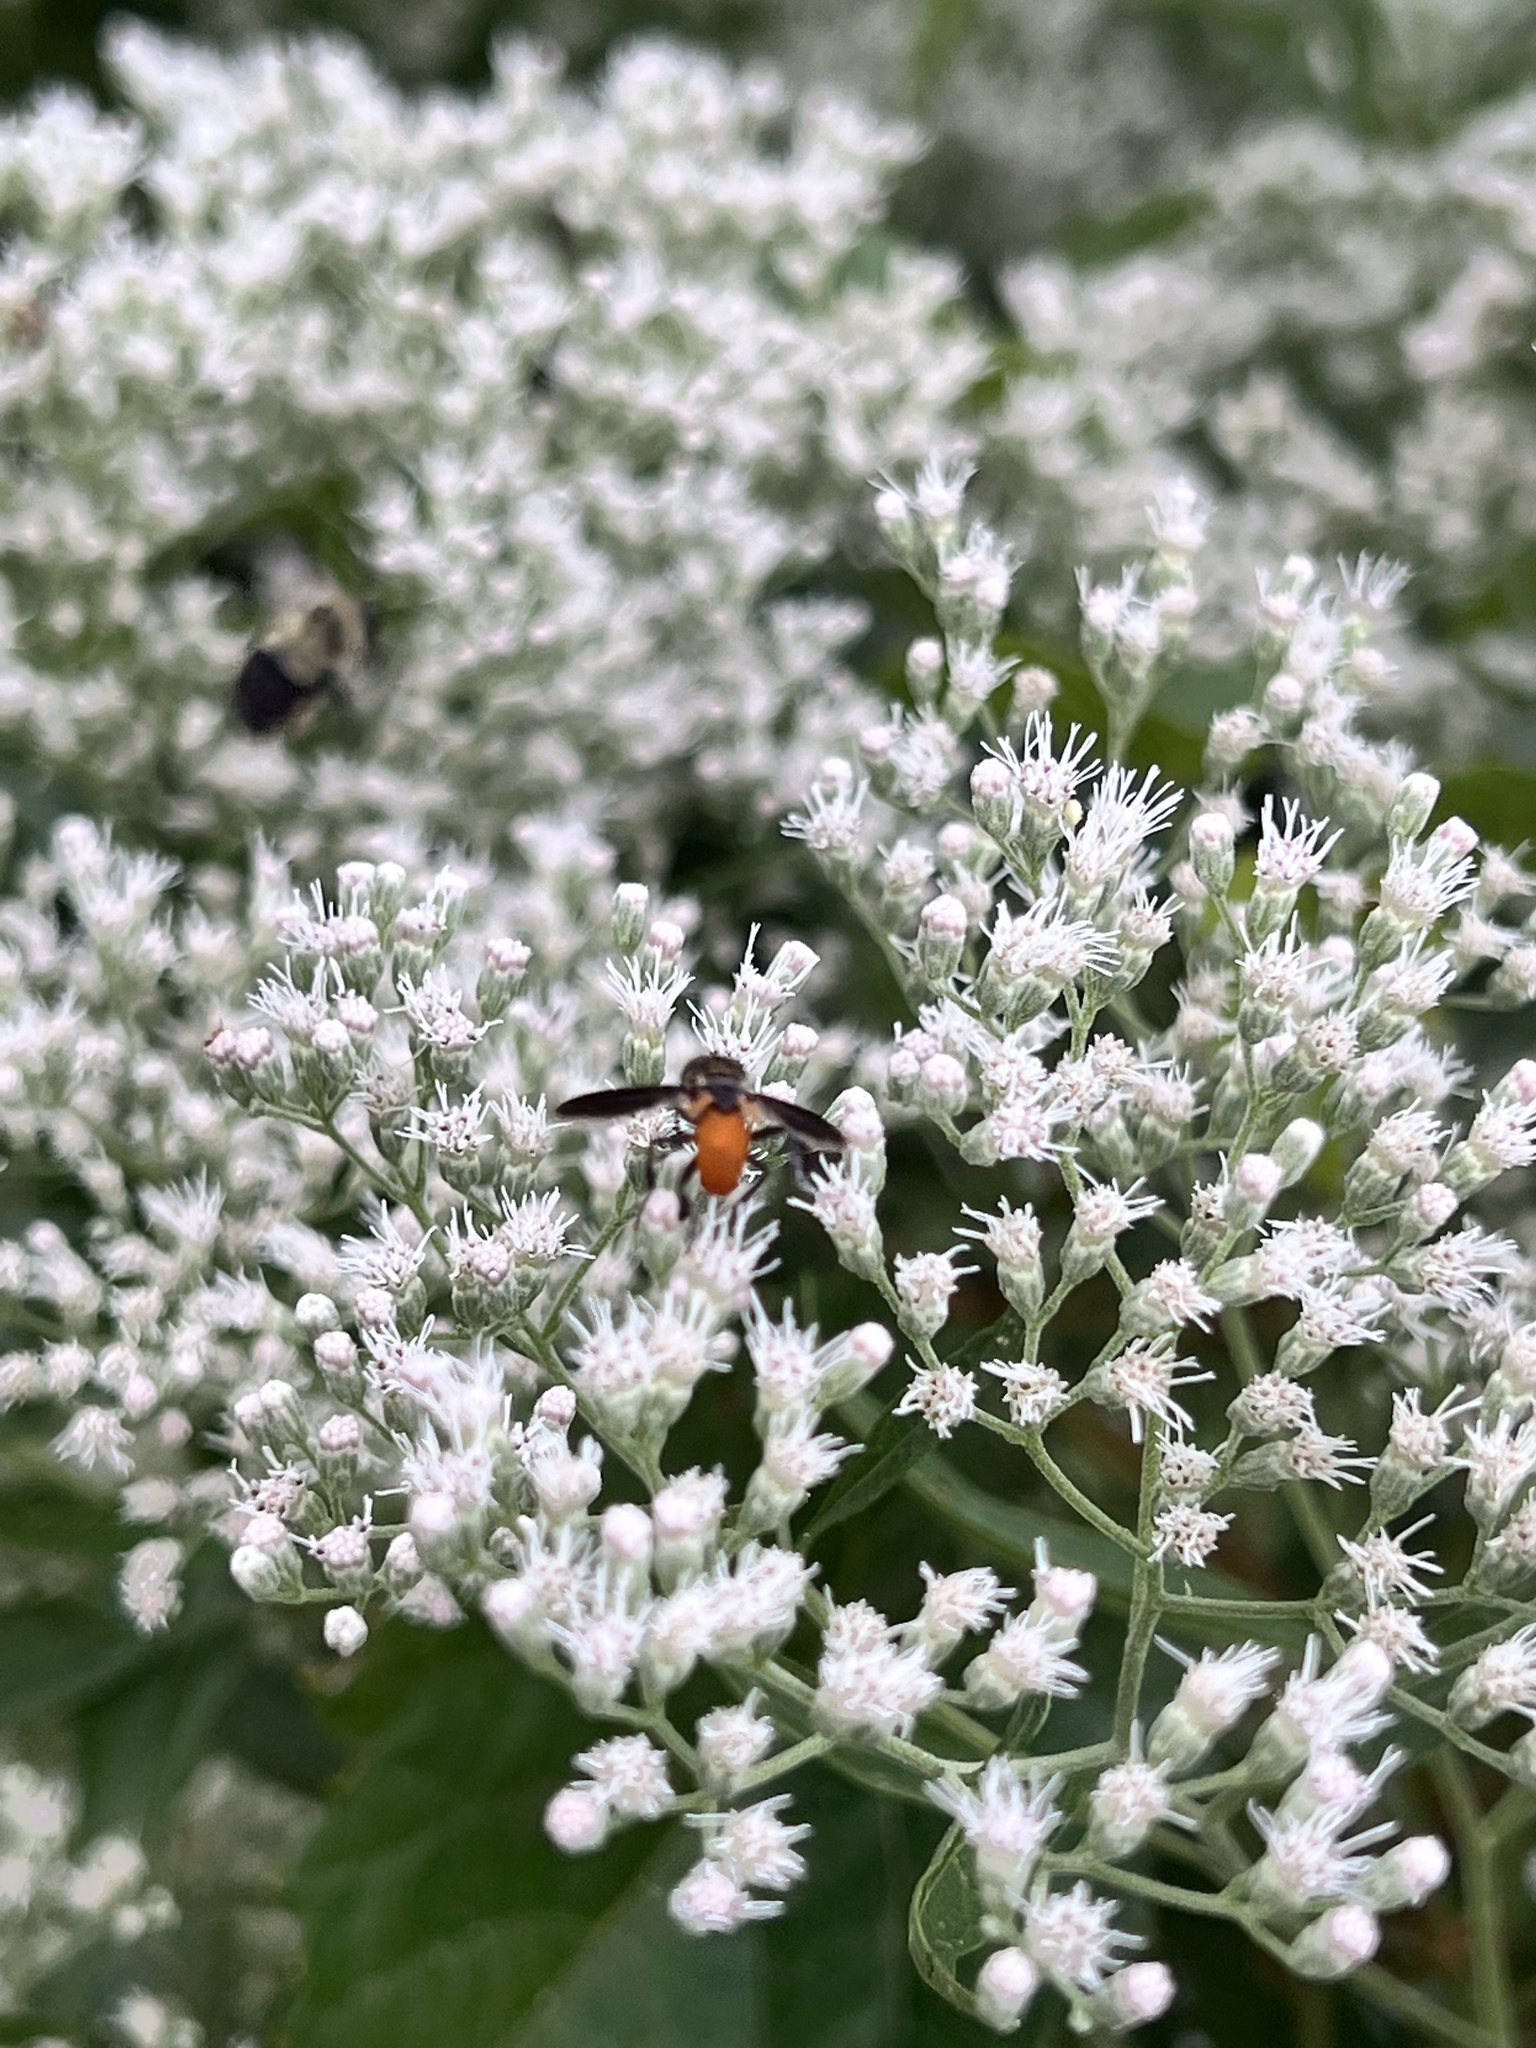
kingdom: Animalia
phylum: Arthropoda
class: Insecta
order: Diptera
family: Tachinidae
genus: Trichopoda
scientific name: Trichopoda pennipes
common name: Tachinid fly
